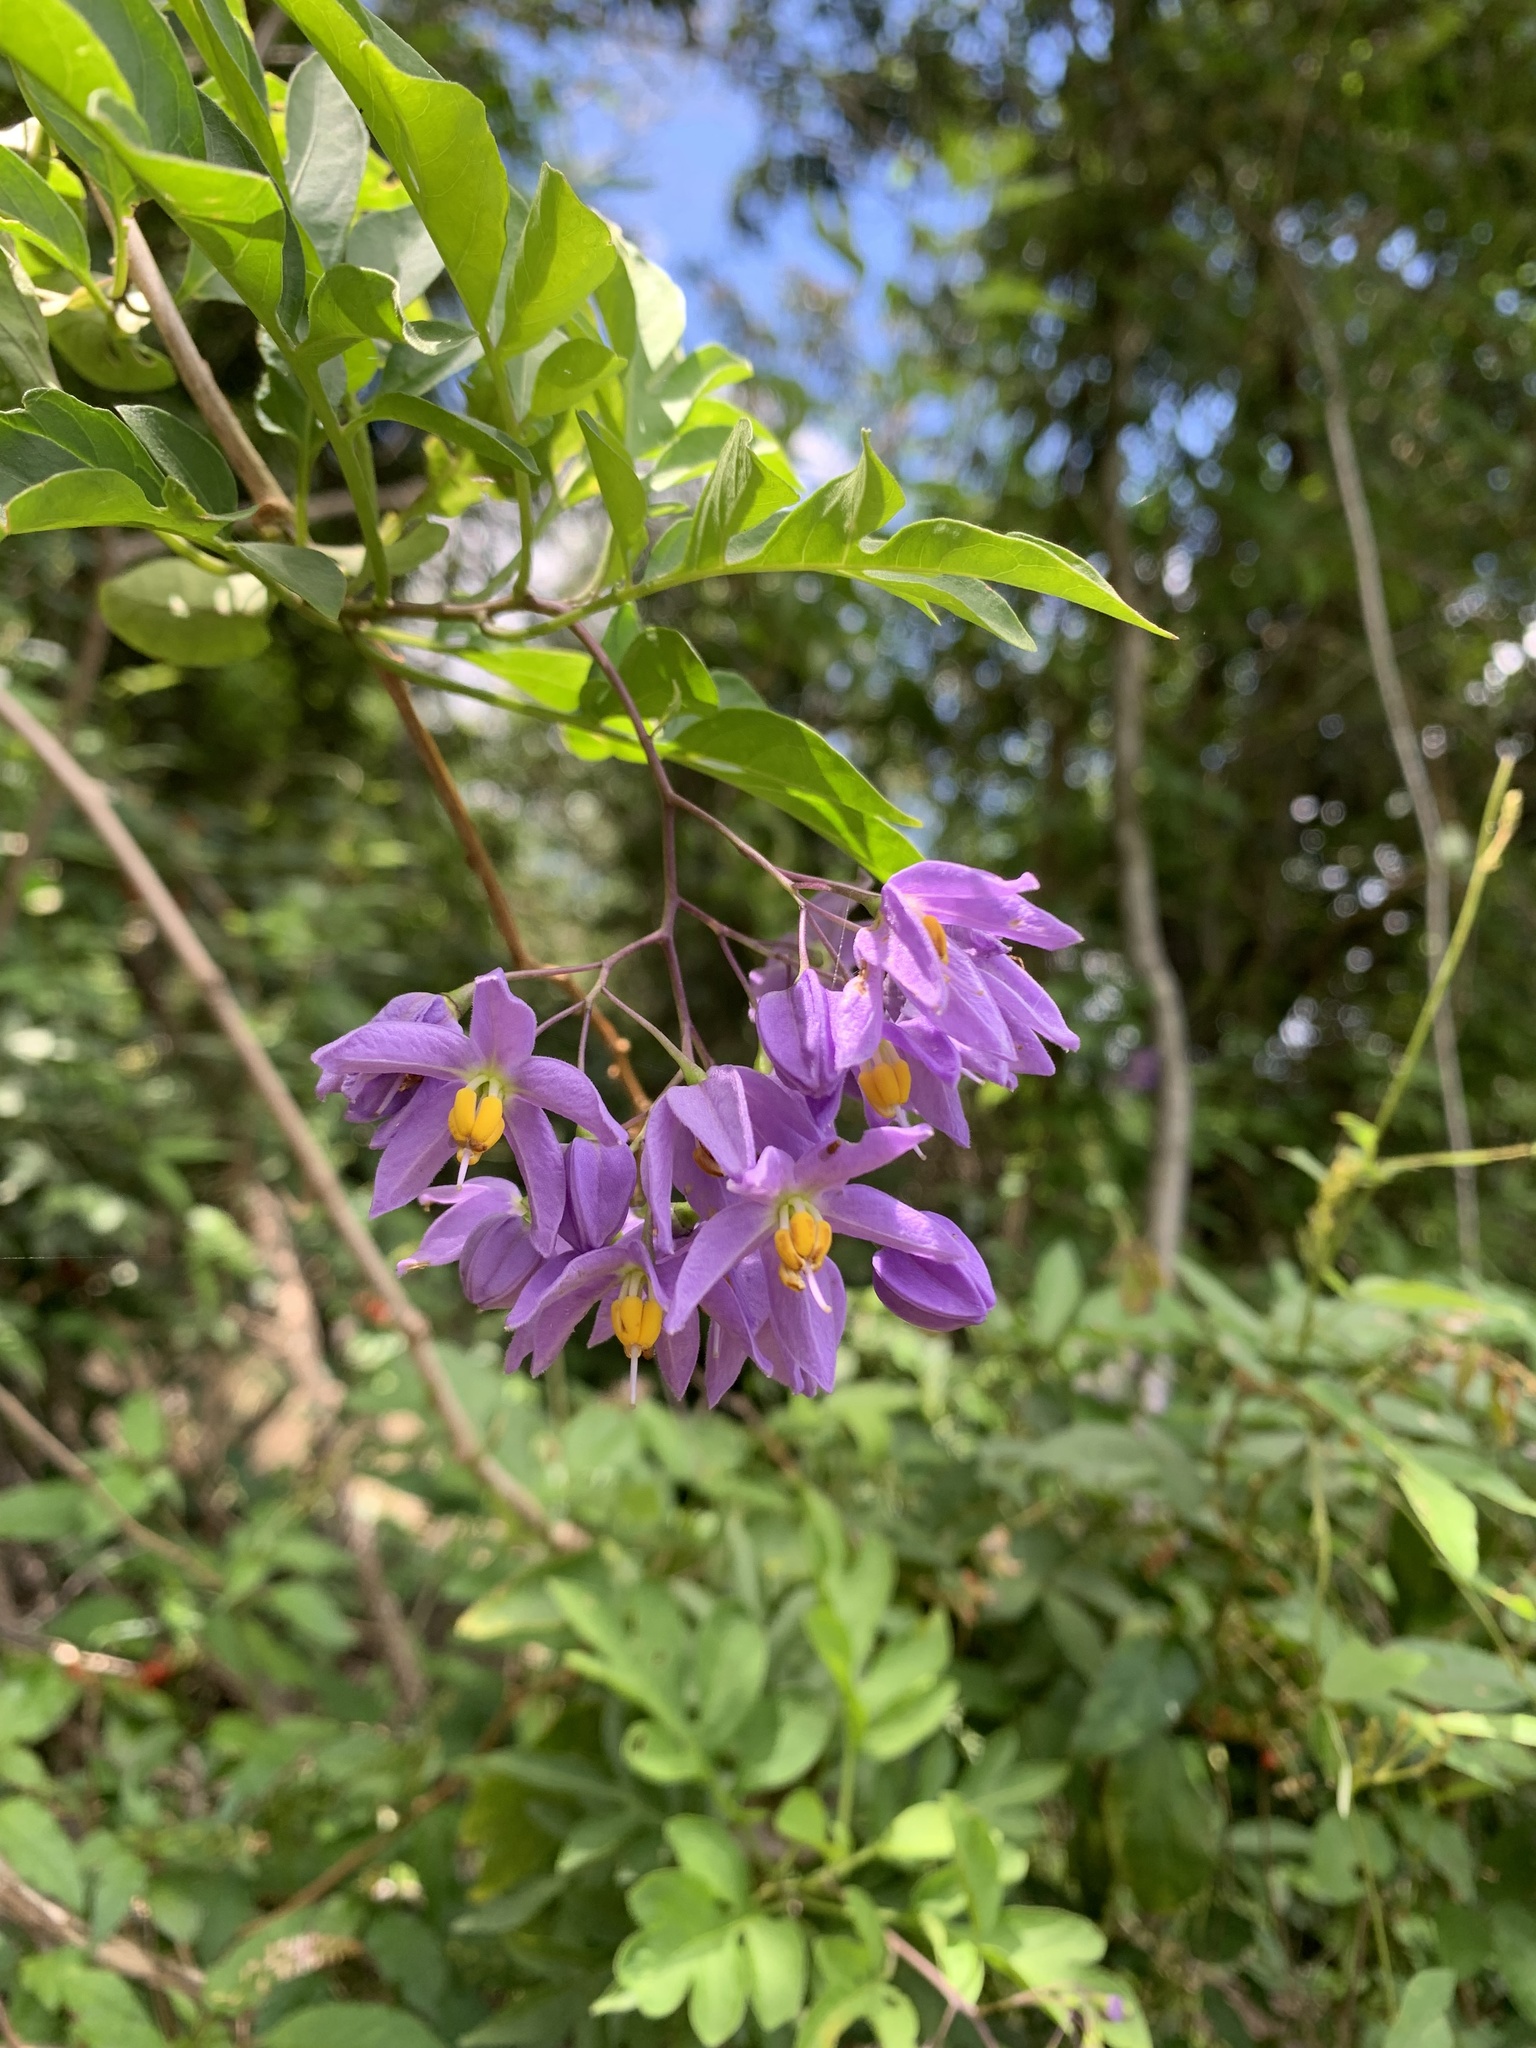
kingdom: Plantae
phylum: Tracheophyta
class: Magnoliopsida
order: Solanales
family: Solanaceae
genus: Solanum
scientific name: Solanum seaforthianum
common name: Brazilian nightshade
